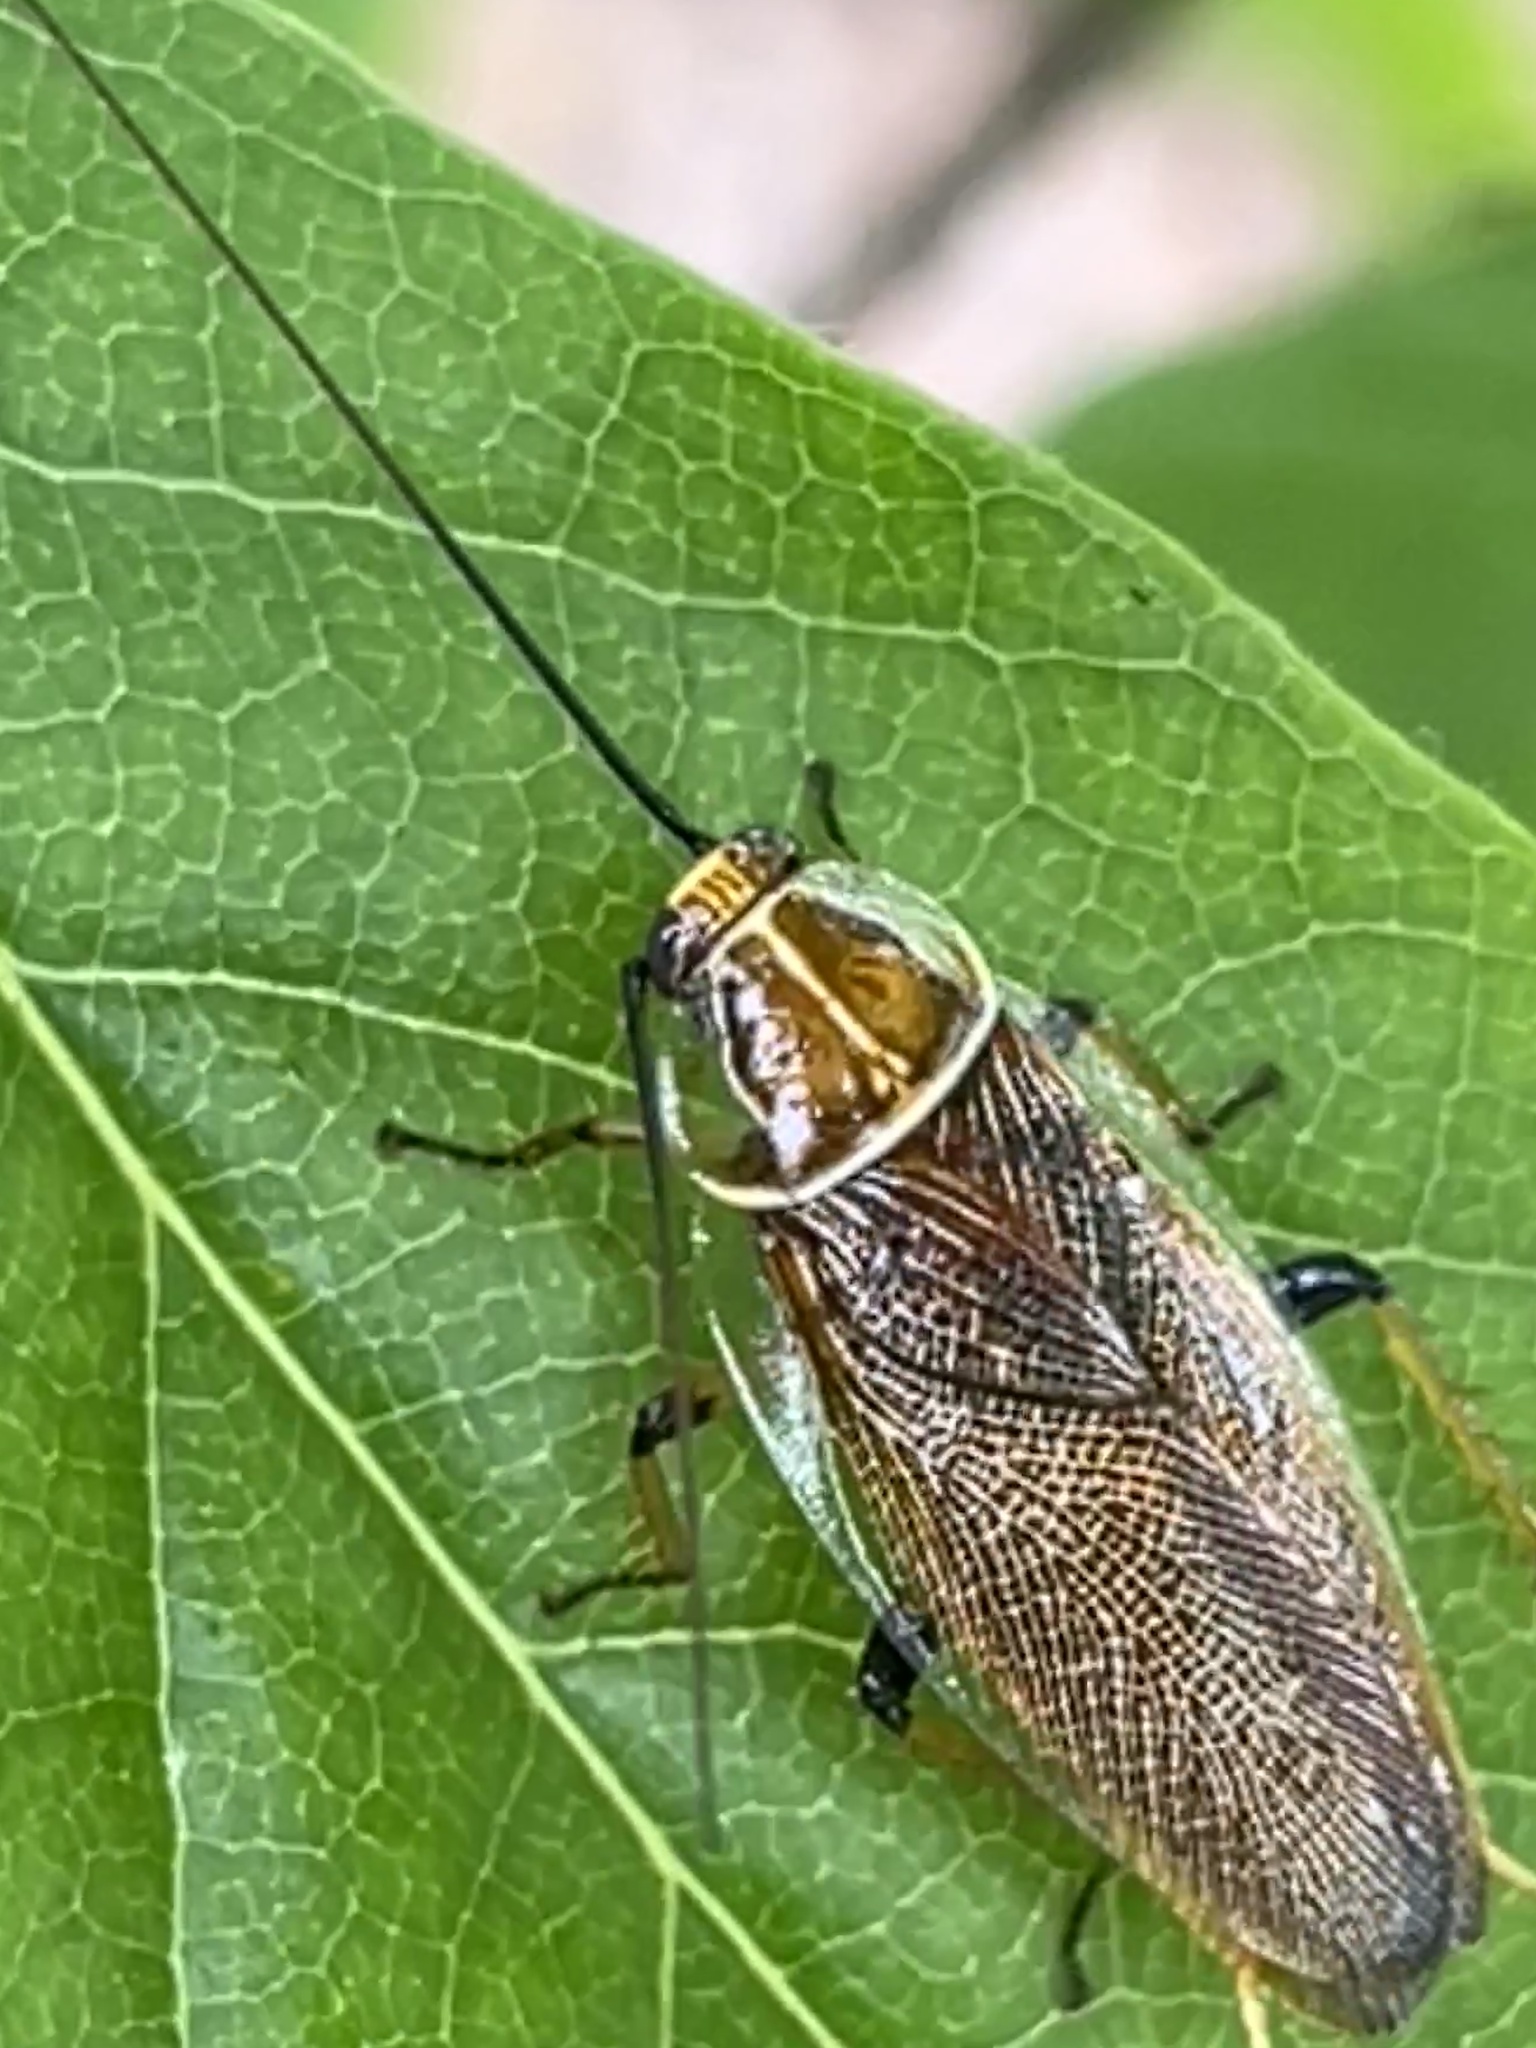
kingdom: Animalia
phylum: Arthropoda
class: Insecta
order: Blattodea
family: Ectobiidae
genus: Balta
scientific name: Balta bicolor
